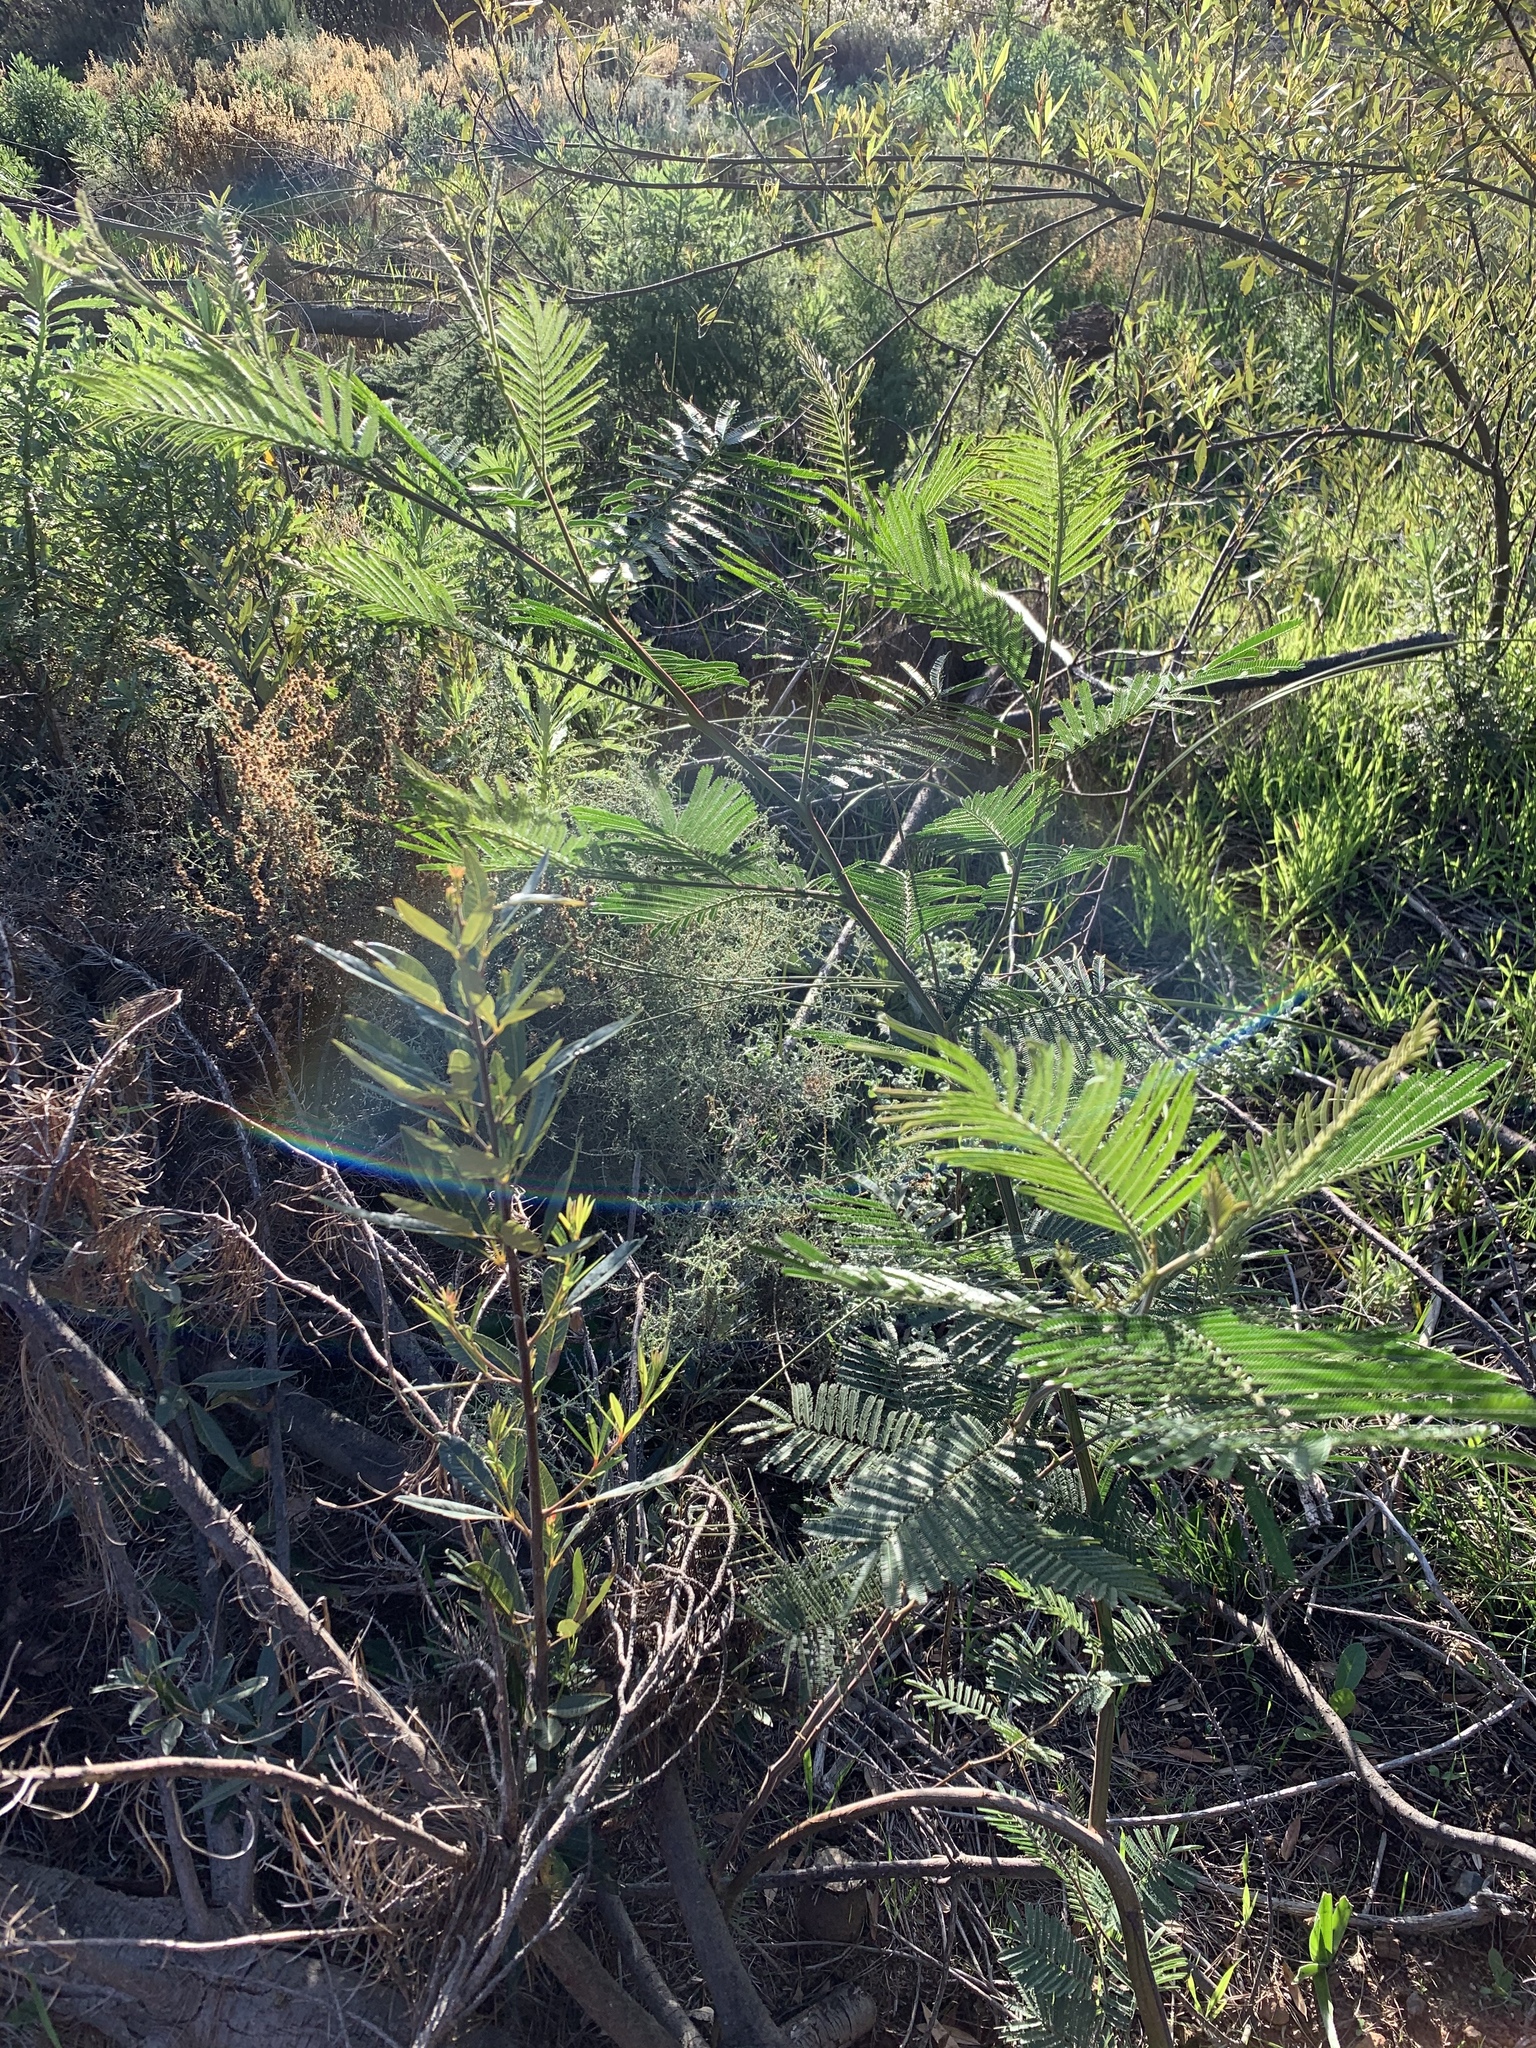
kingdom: Plantae
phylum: Tracheophyta
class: Magnoliopsida
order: Fabales
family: Fabaceae
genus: Acacia
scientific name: Acacia mearnsii
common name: Black wattle
